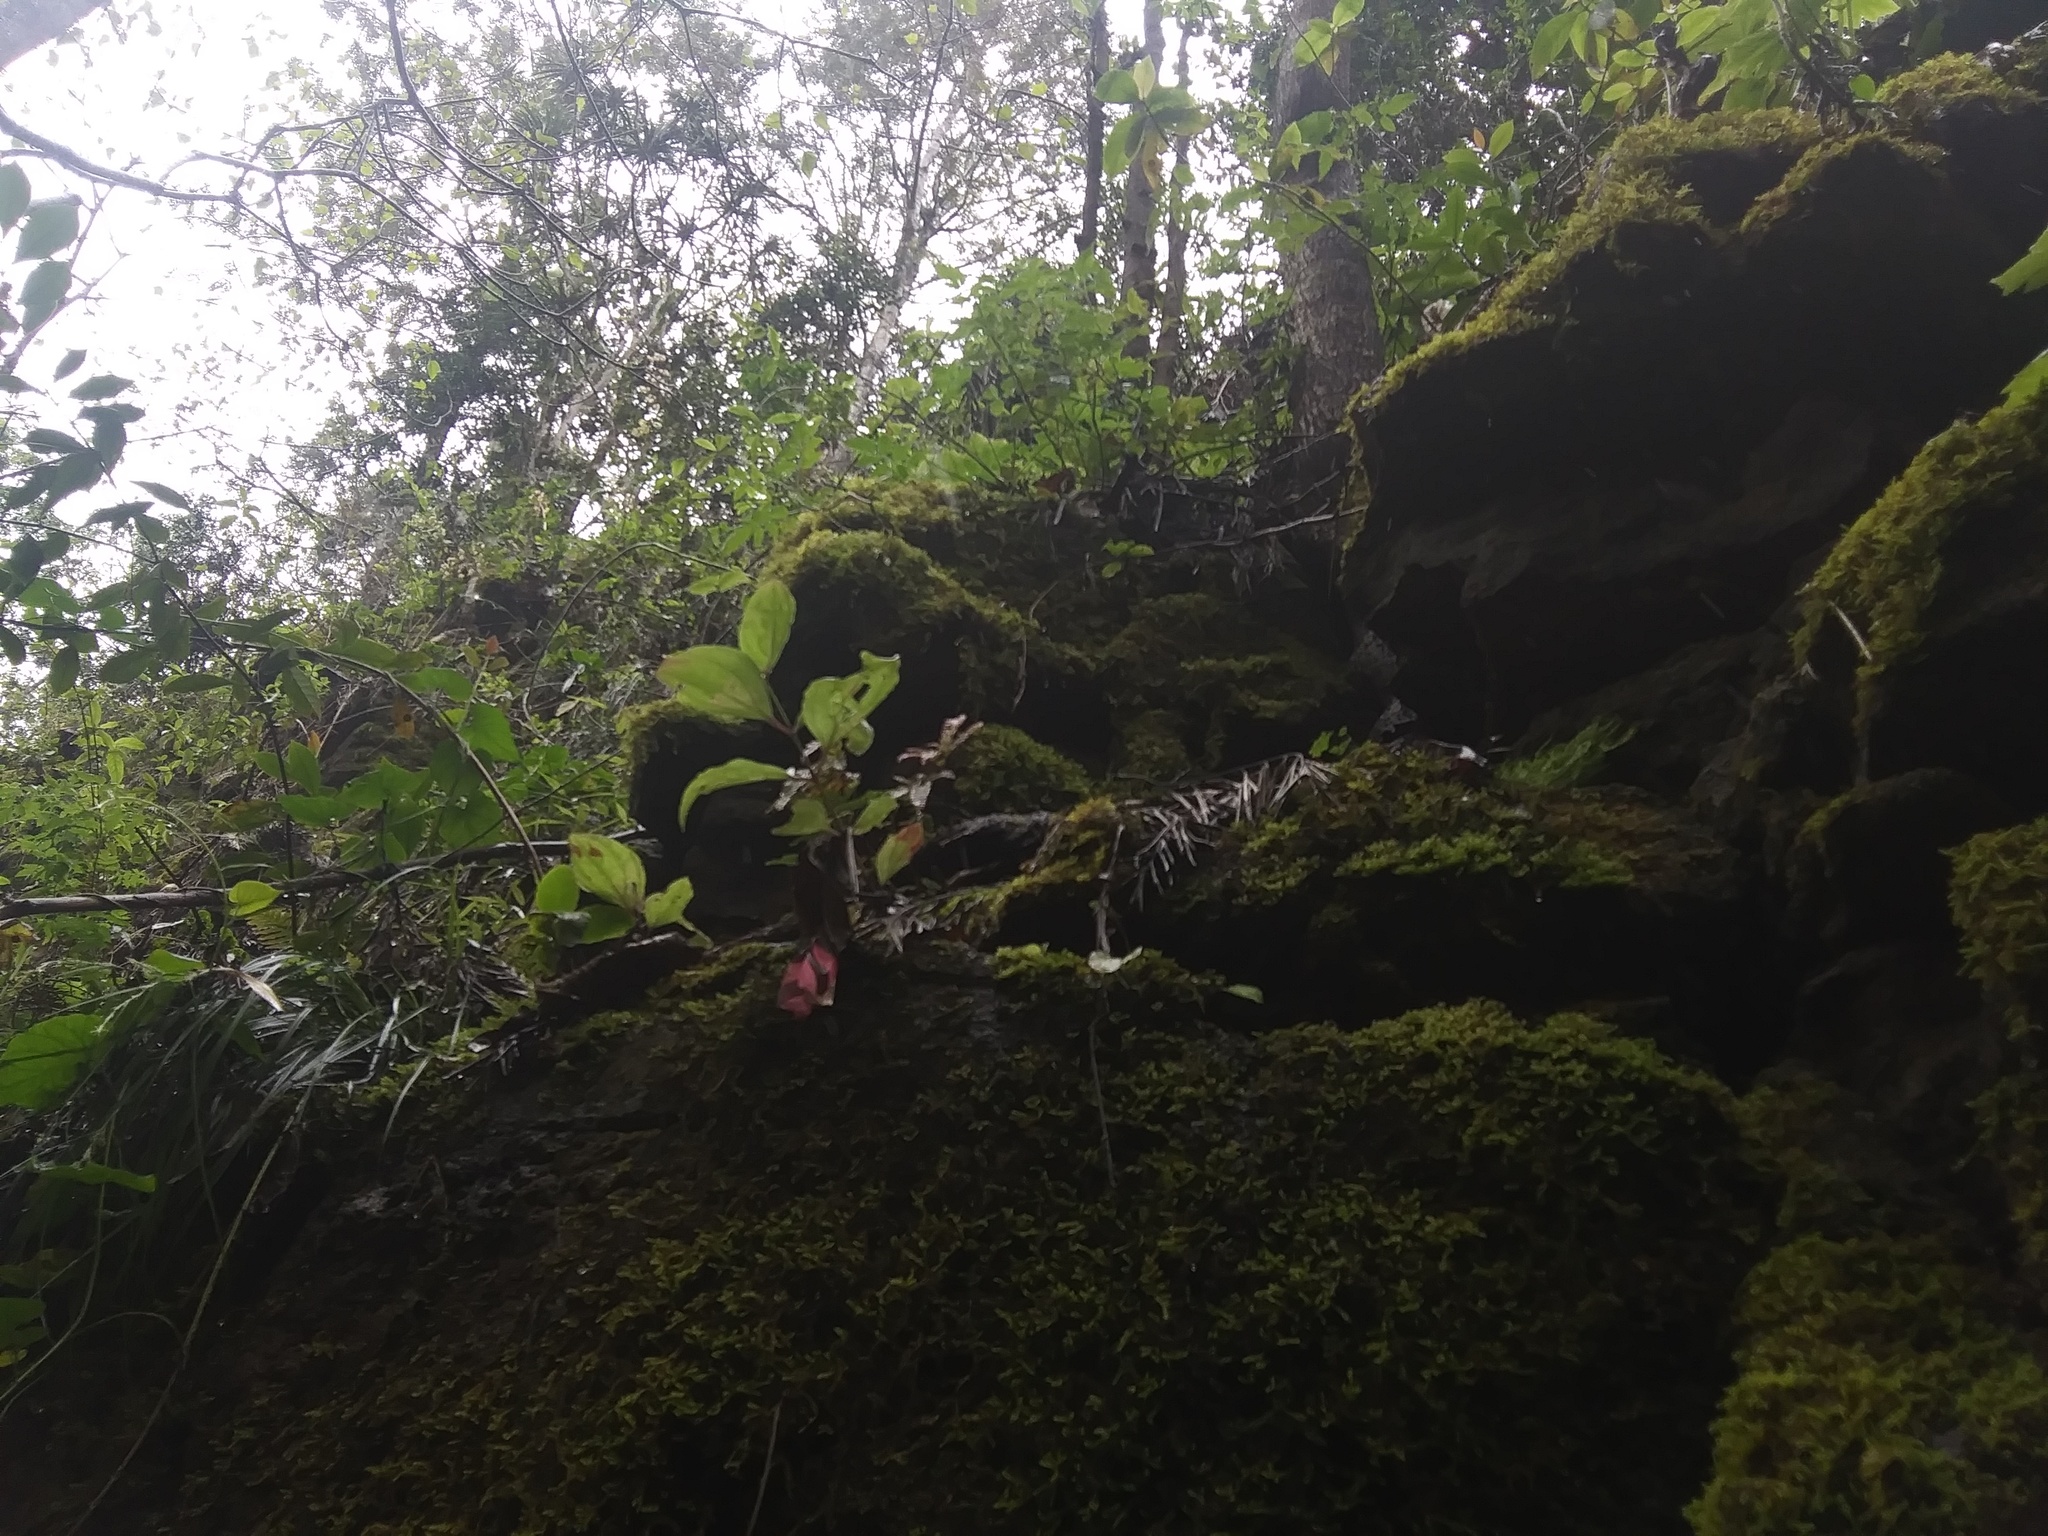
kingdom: Plantae
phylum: Tracheophyta
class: Magnoliopsida
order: Caryophyllales
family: Caryophyllaceae
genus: Schiedea
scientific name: Schiedea membranacea
